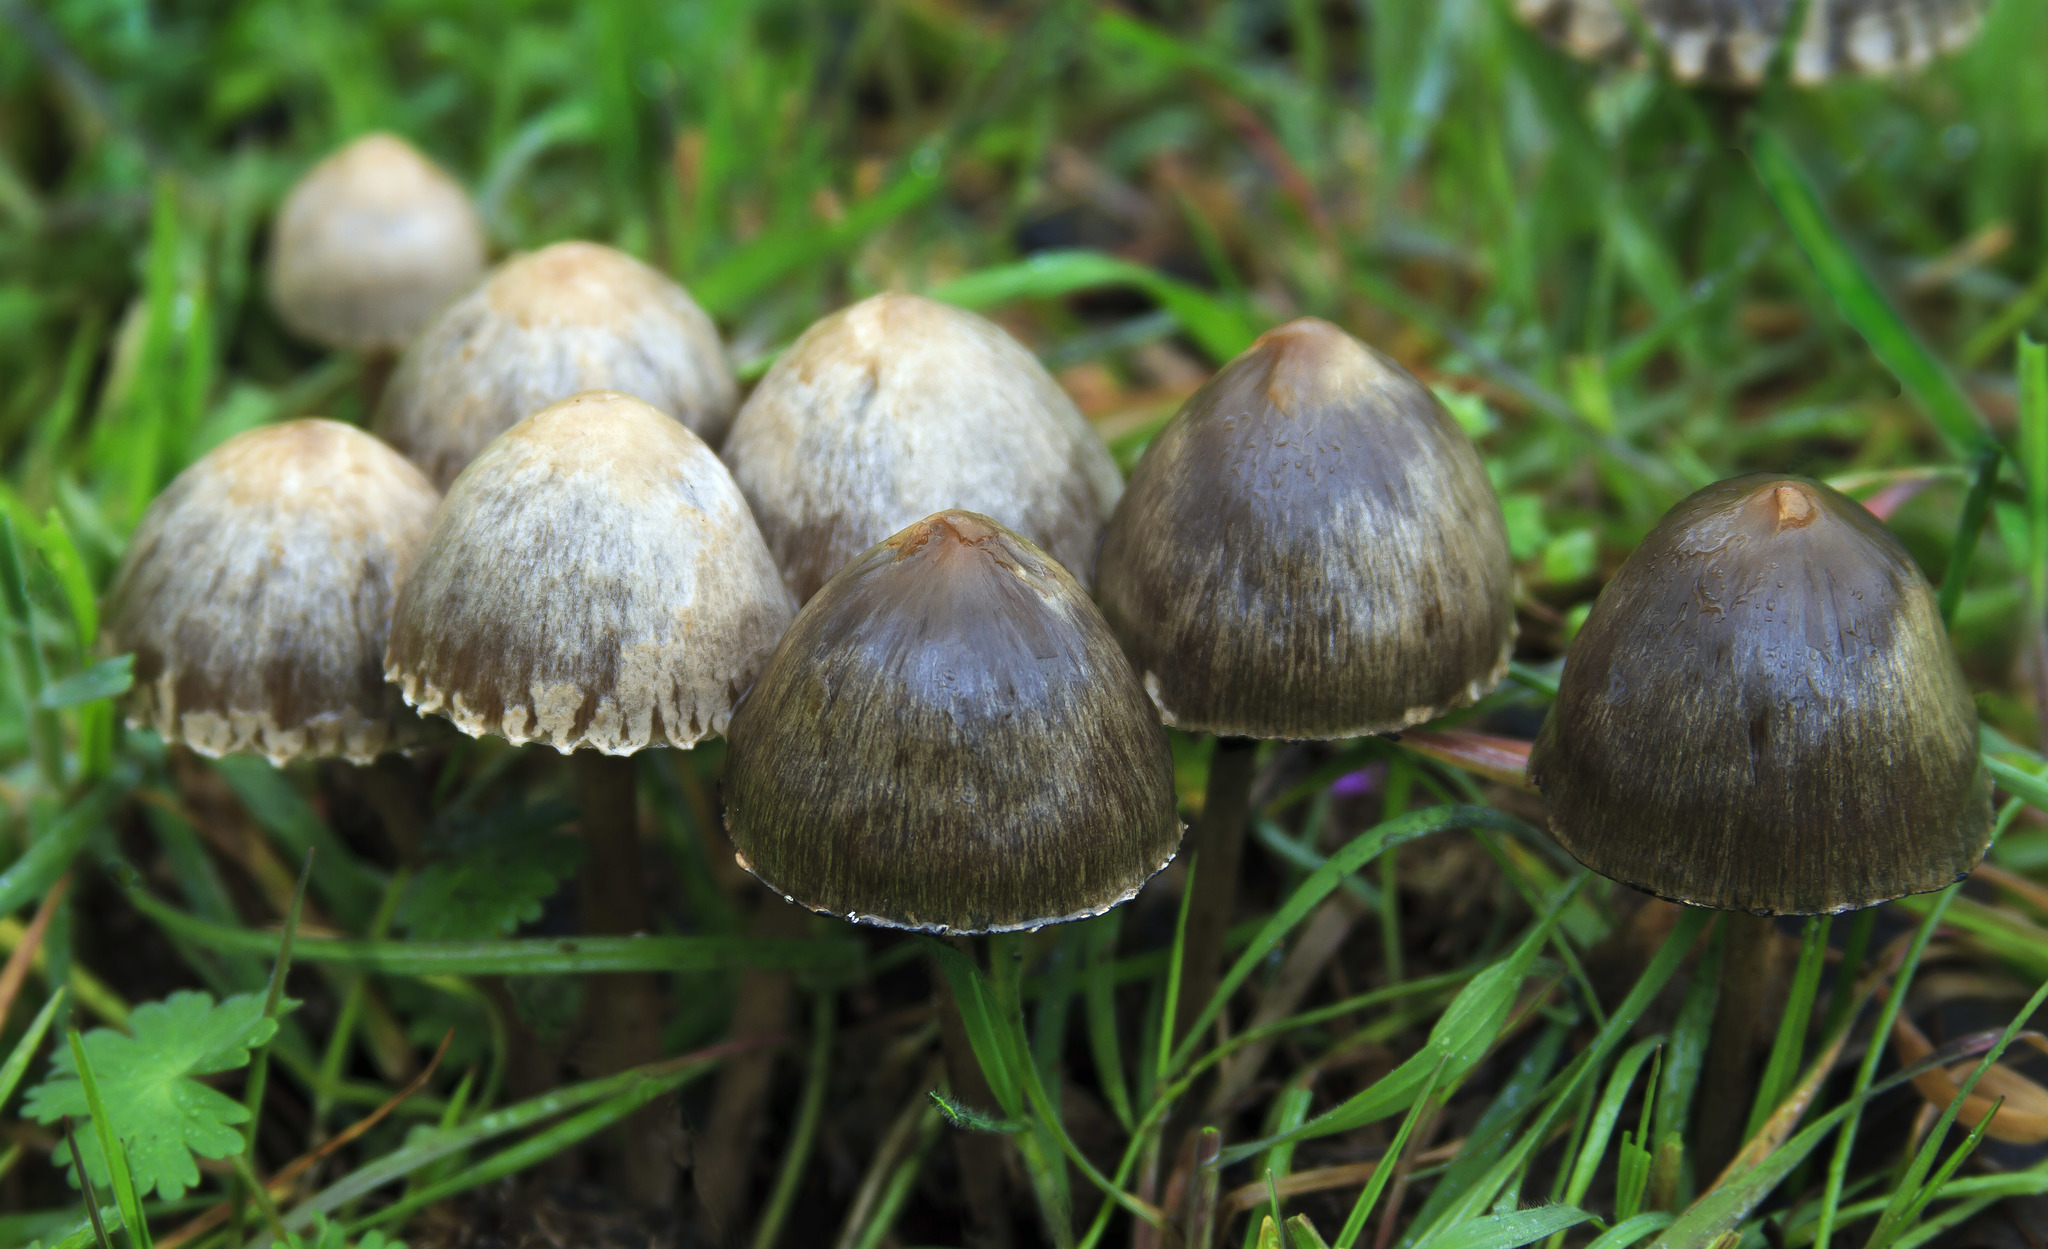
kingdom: Fungi
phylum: Basidiomycota
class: Agaricomycetes
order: Agaricales
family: Bolbitiaceae
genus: Panaeolus
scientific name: Panaeolus papilionaceus
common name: Petticoat mottlegill
